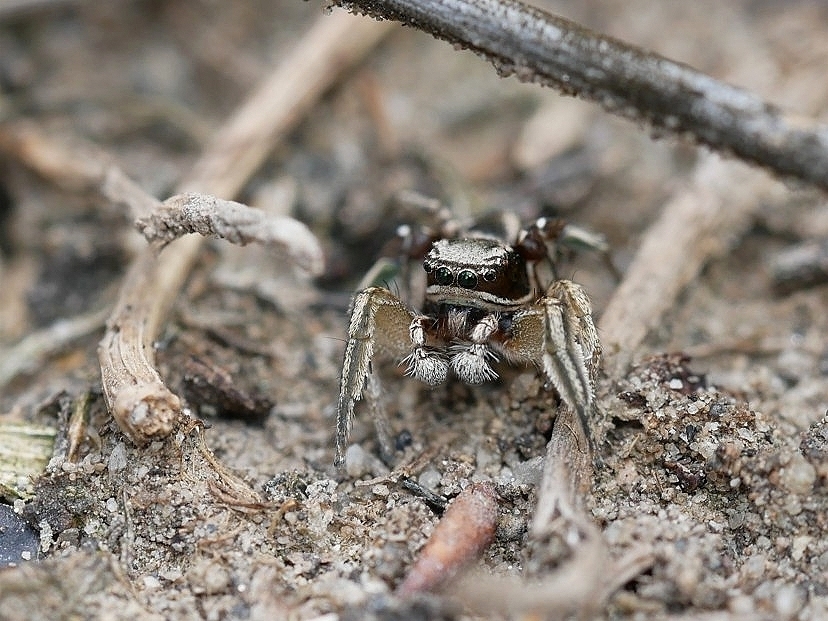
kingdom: Animalia
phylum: Arthropoda
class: Arachnida
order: Araneae
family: Salticidae
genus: Habronattus
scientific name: Habronattus festus
